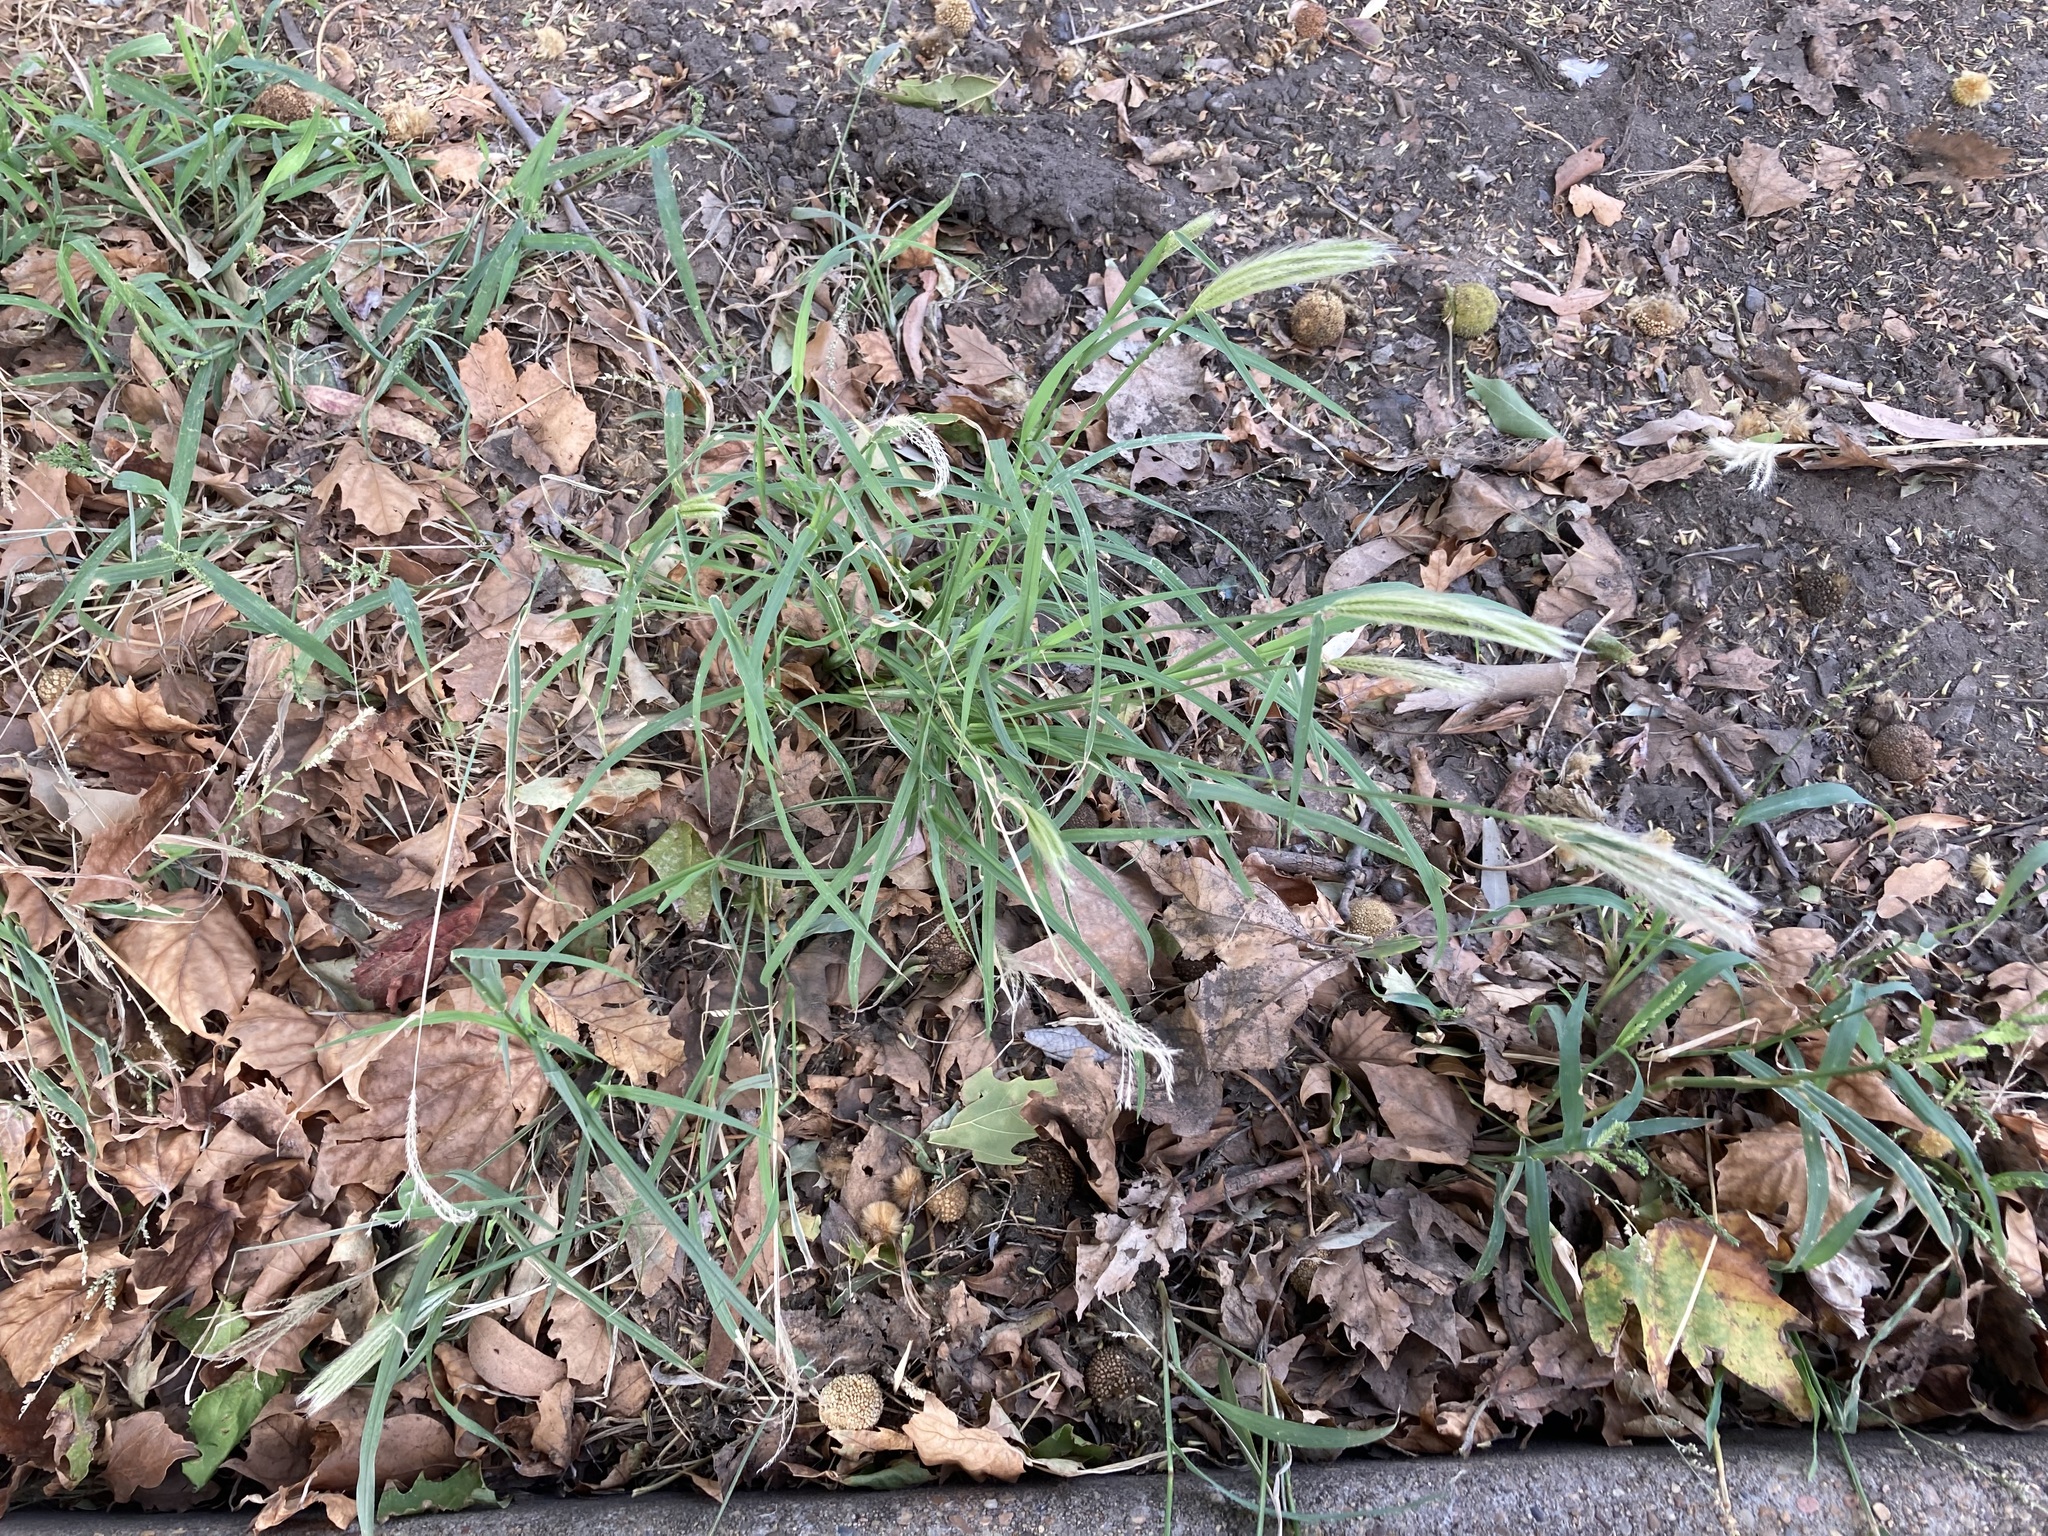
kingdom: Plantae
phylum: Tracheophyta
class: Liliopsida
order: Poales
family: Poaceae
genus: Chloris
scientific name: Chloris virgata
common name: Feathery rhodes-grass
